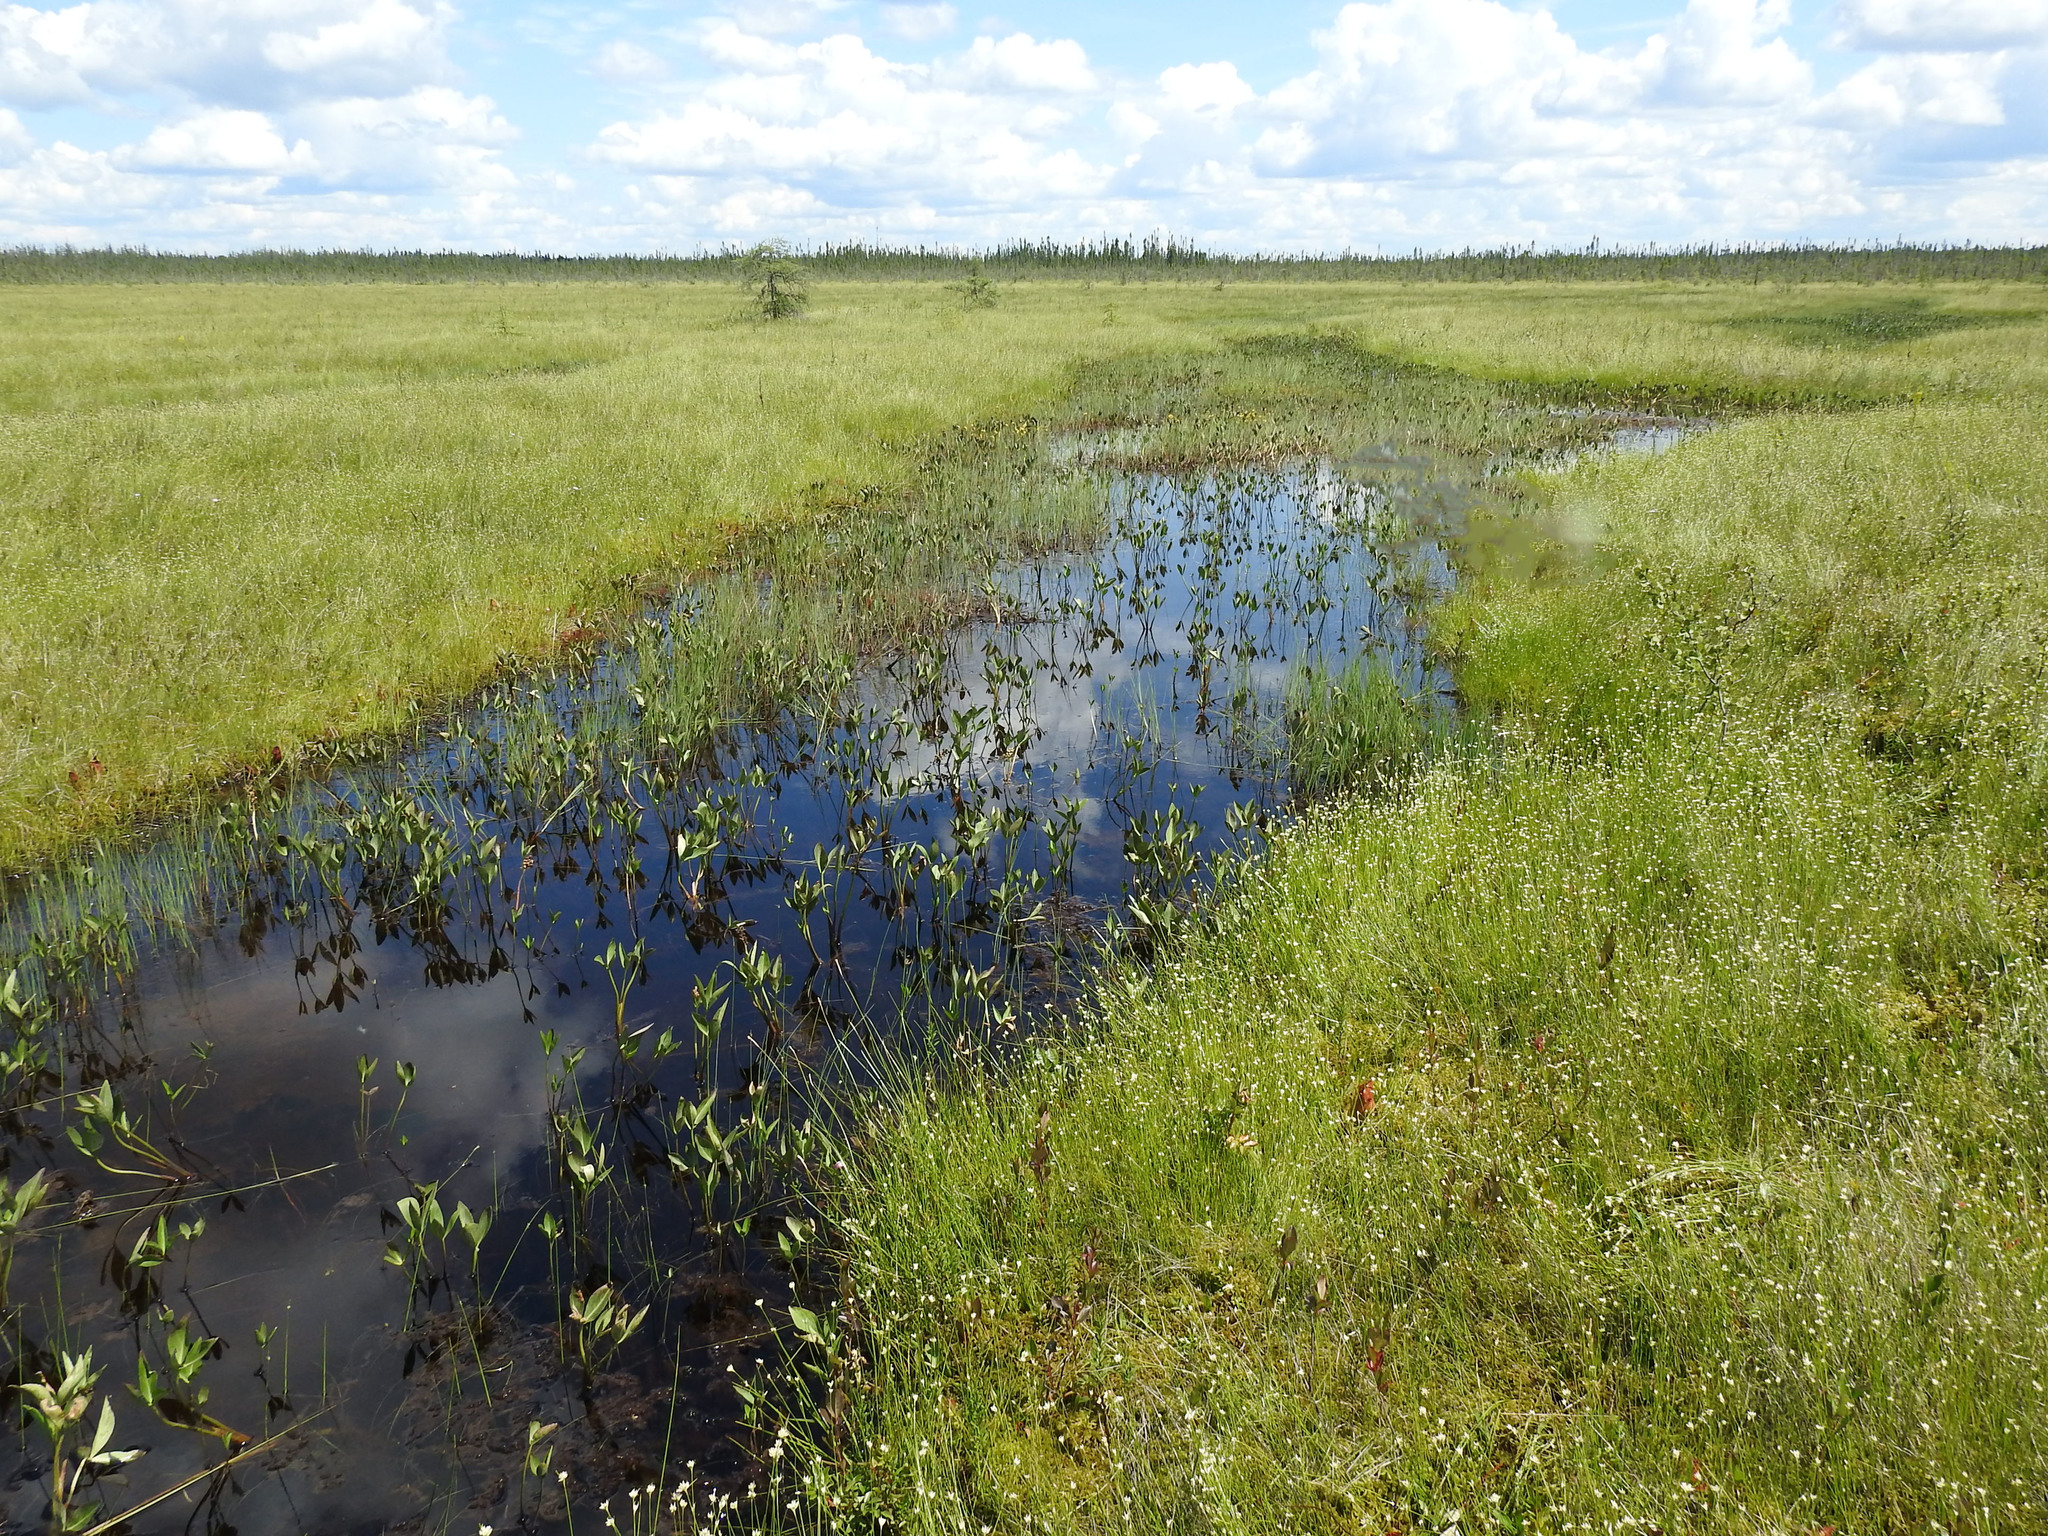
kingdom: Plantae
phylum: Tracheophyta
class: Magnoliopsida
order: Asterales
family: Menyanthaceae
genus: Menyanthes
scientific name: Menyanthes trifoliata
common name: Bogbean
